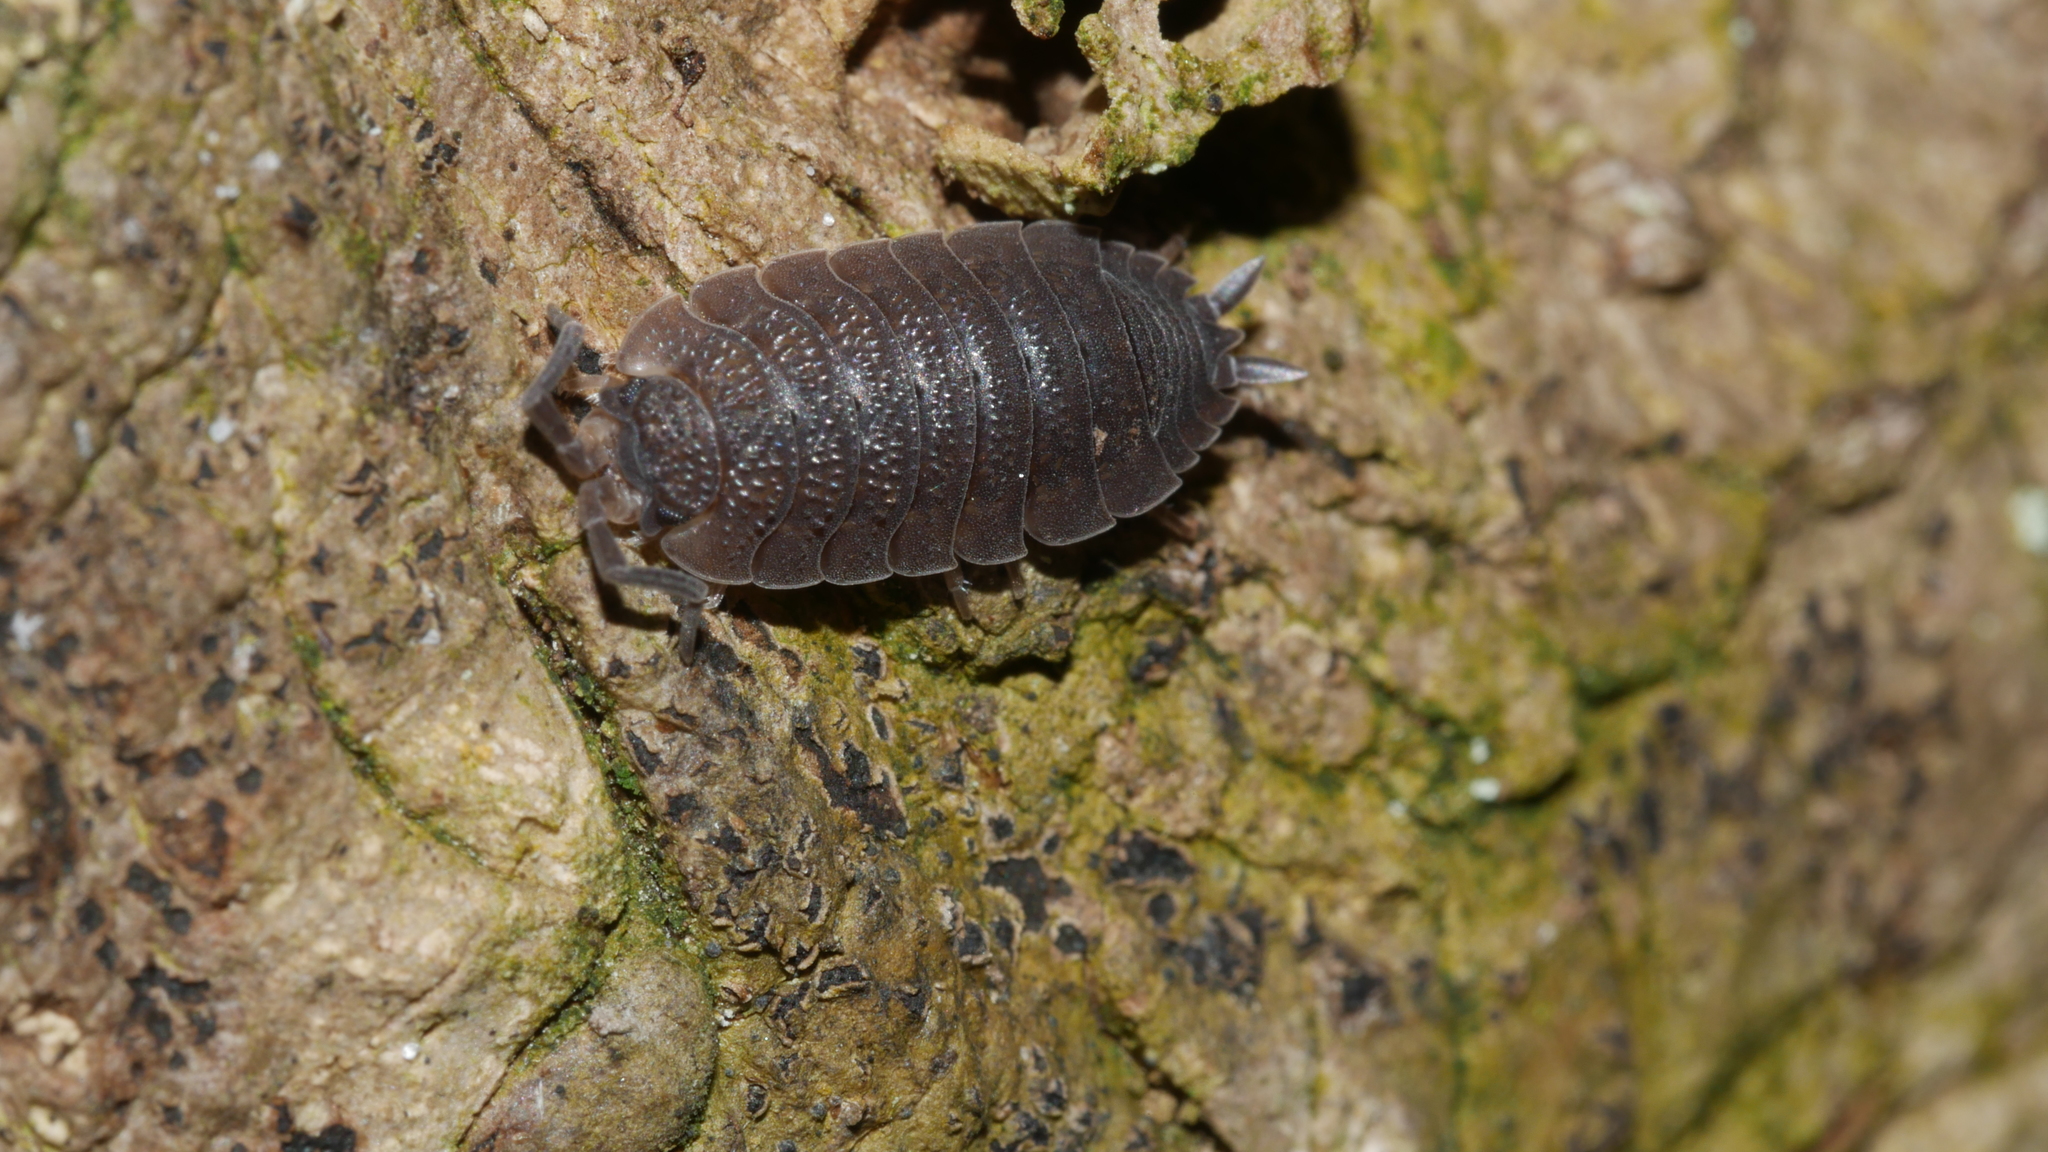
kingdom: Animalia
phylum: Arthropoda
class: Malacostraca
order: Isopoda
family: Porcellionidae
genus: Porcellio
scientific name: Porcellio scaber
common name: Common rough woodlouse
